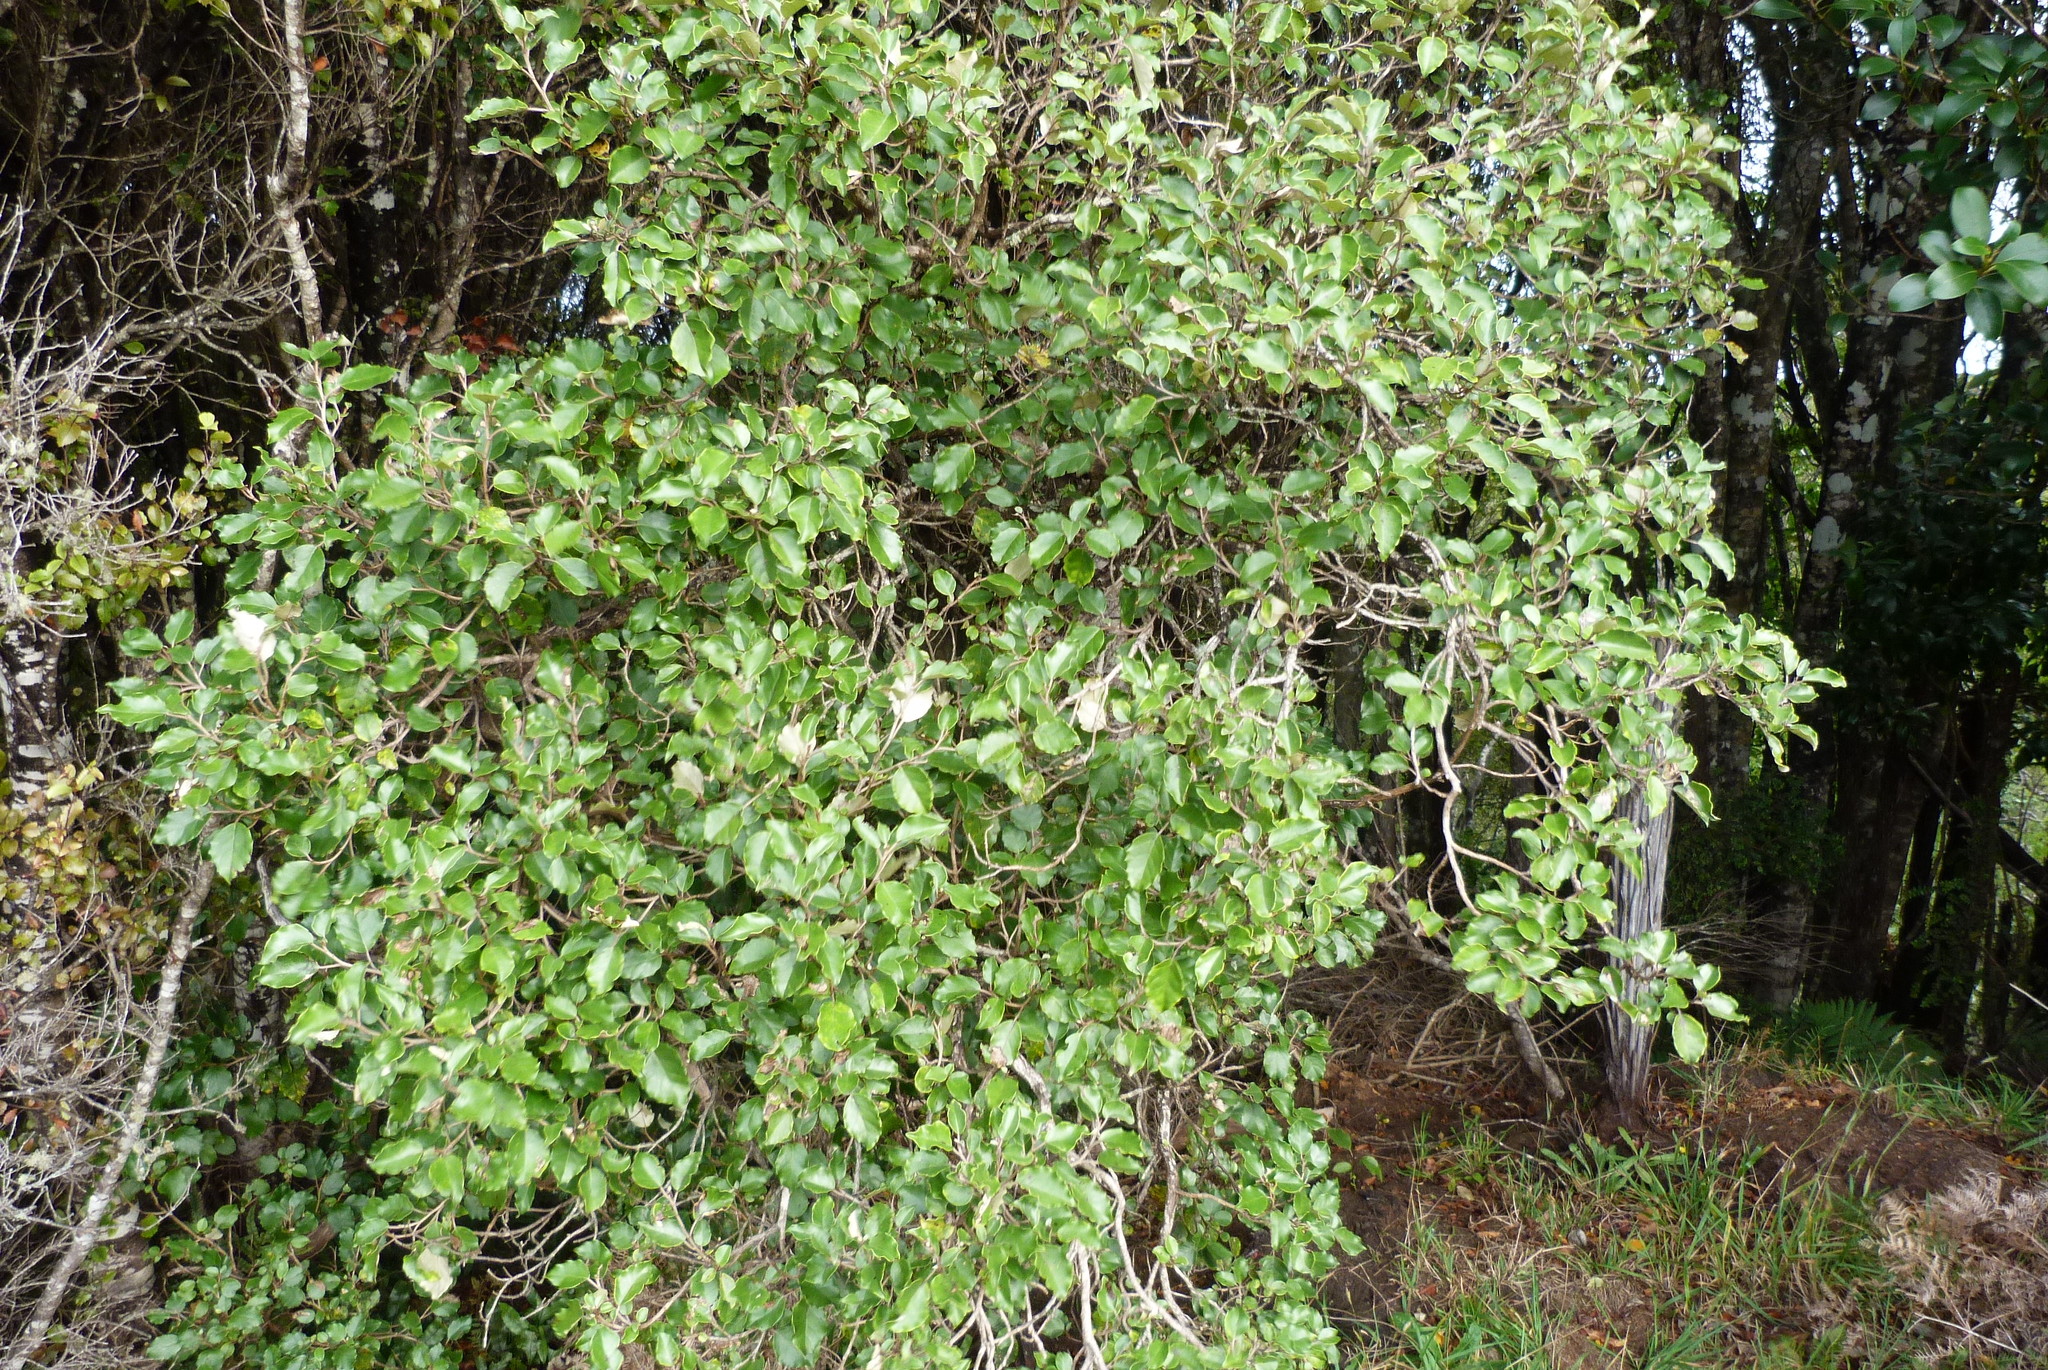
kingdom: Plantae
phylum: Tracheophyta
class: Magnoliopsida
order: Asterales
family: Asteraceae
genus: Olearia
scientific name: Olearia arborescens
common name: Glossy tree daisy
